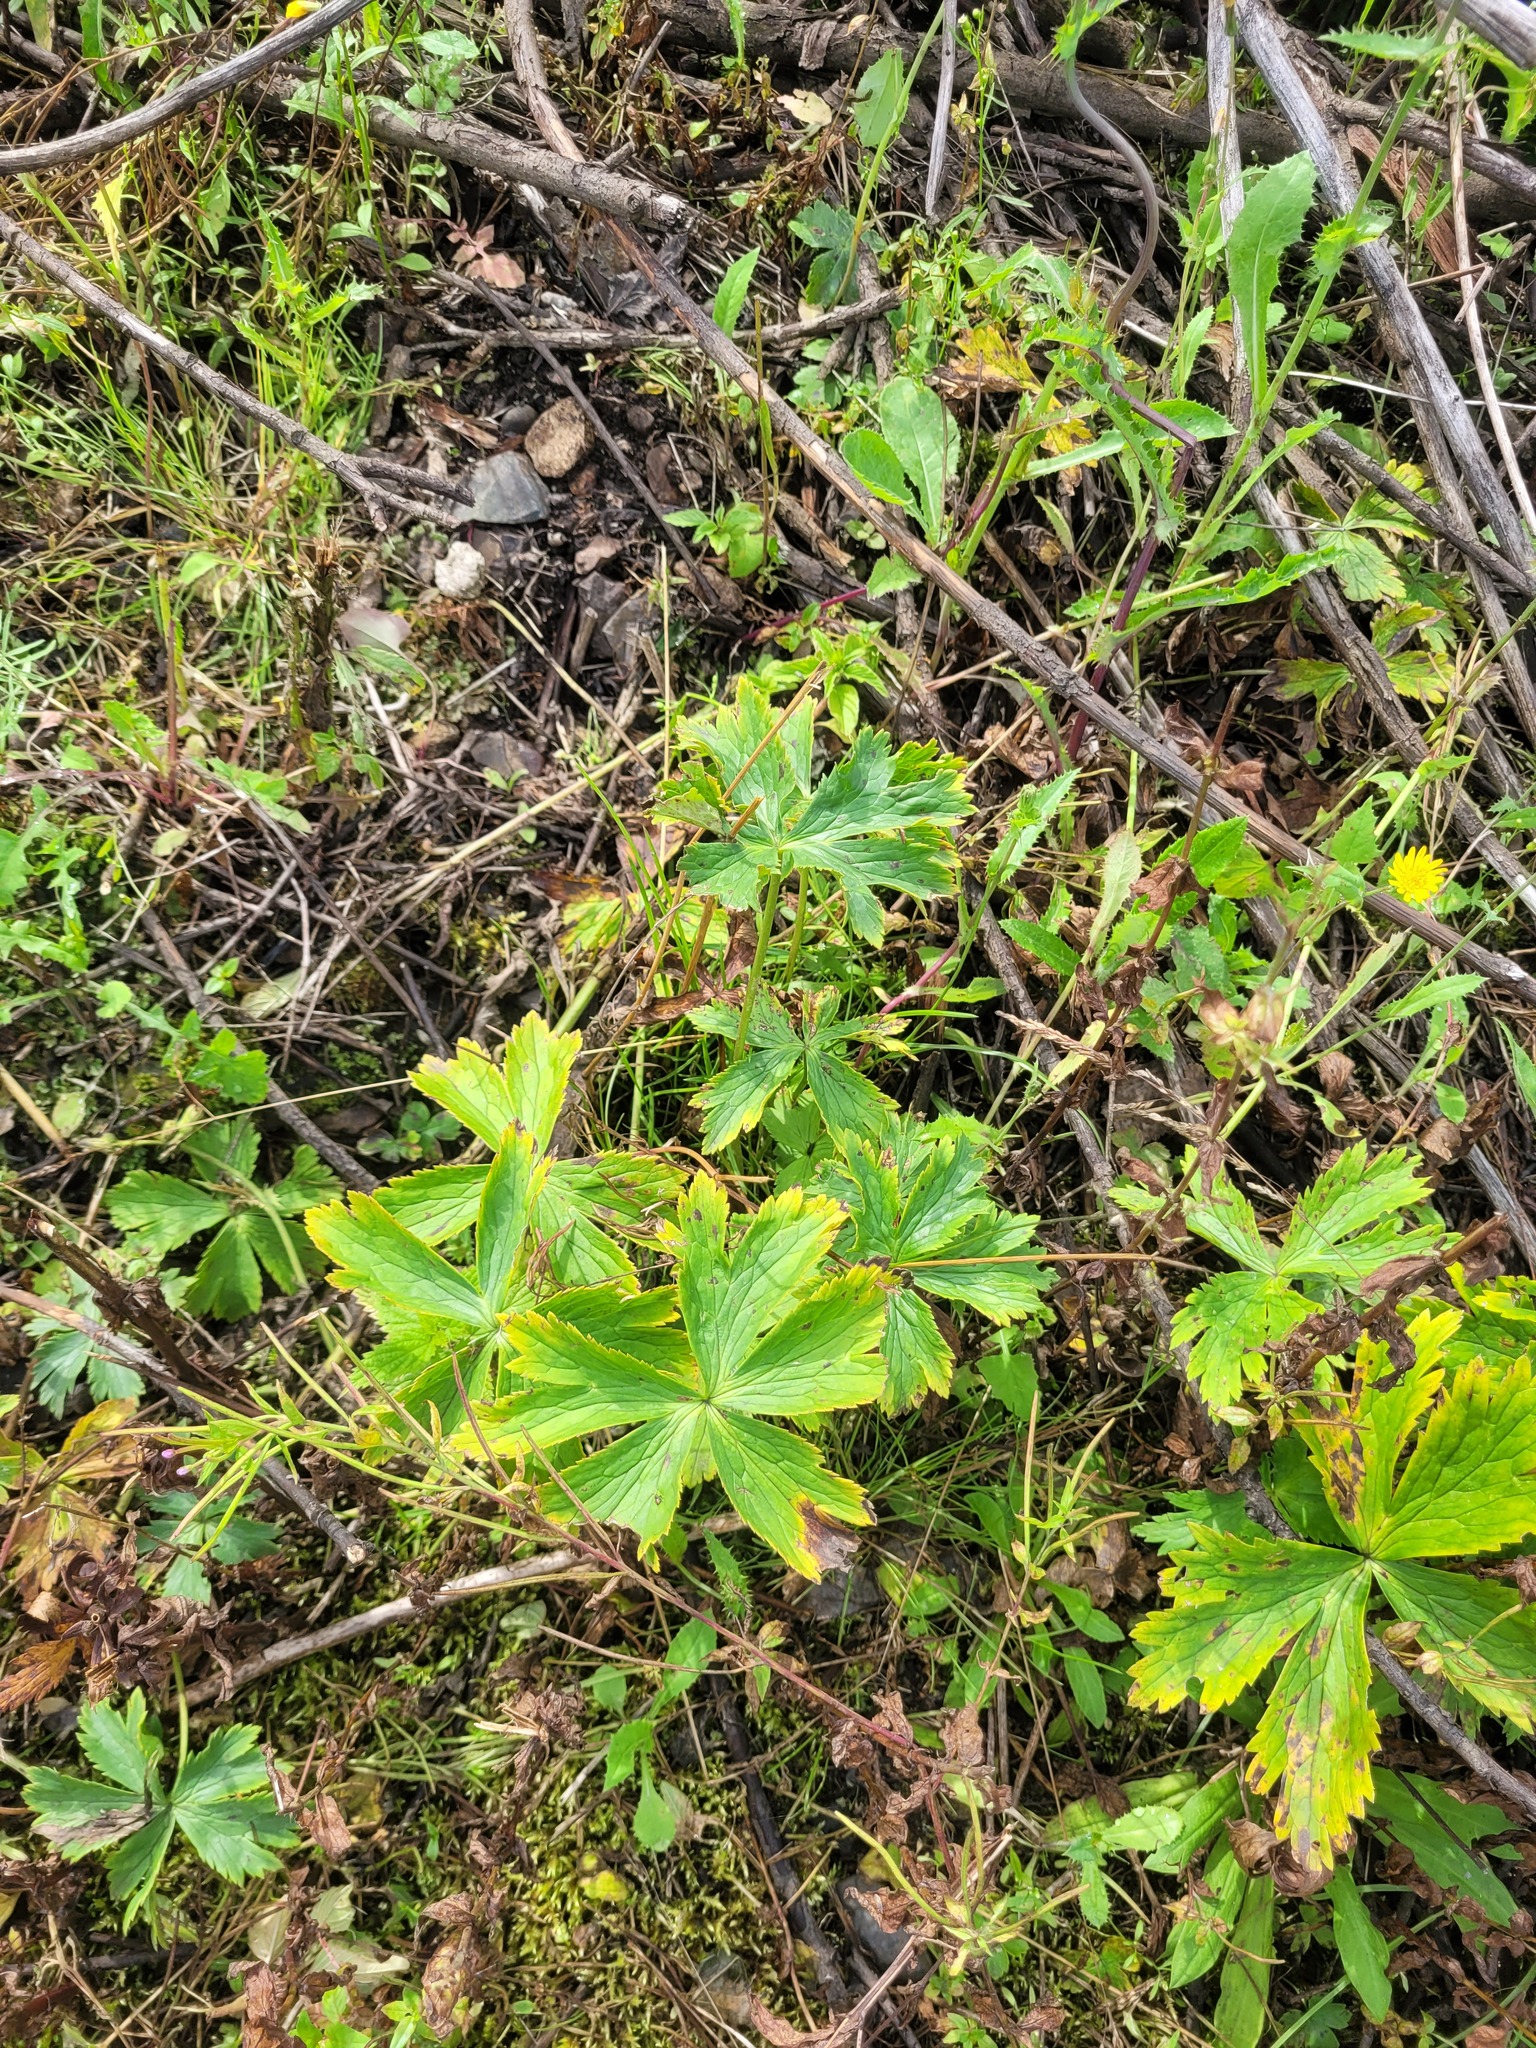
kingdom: Plantae
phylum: Tracheophyta
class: Magnoliopsida
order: Ranunculales
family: Ranunculaceae
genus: Trollius
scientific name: Trollius europaeus
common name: European globeflower
